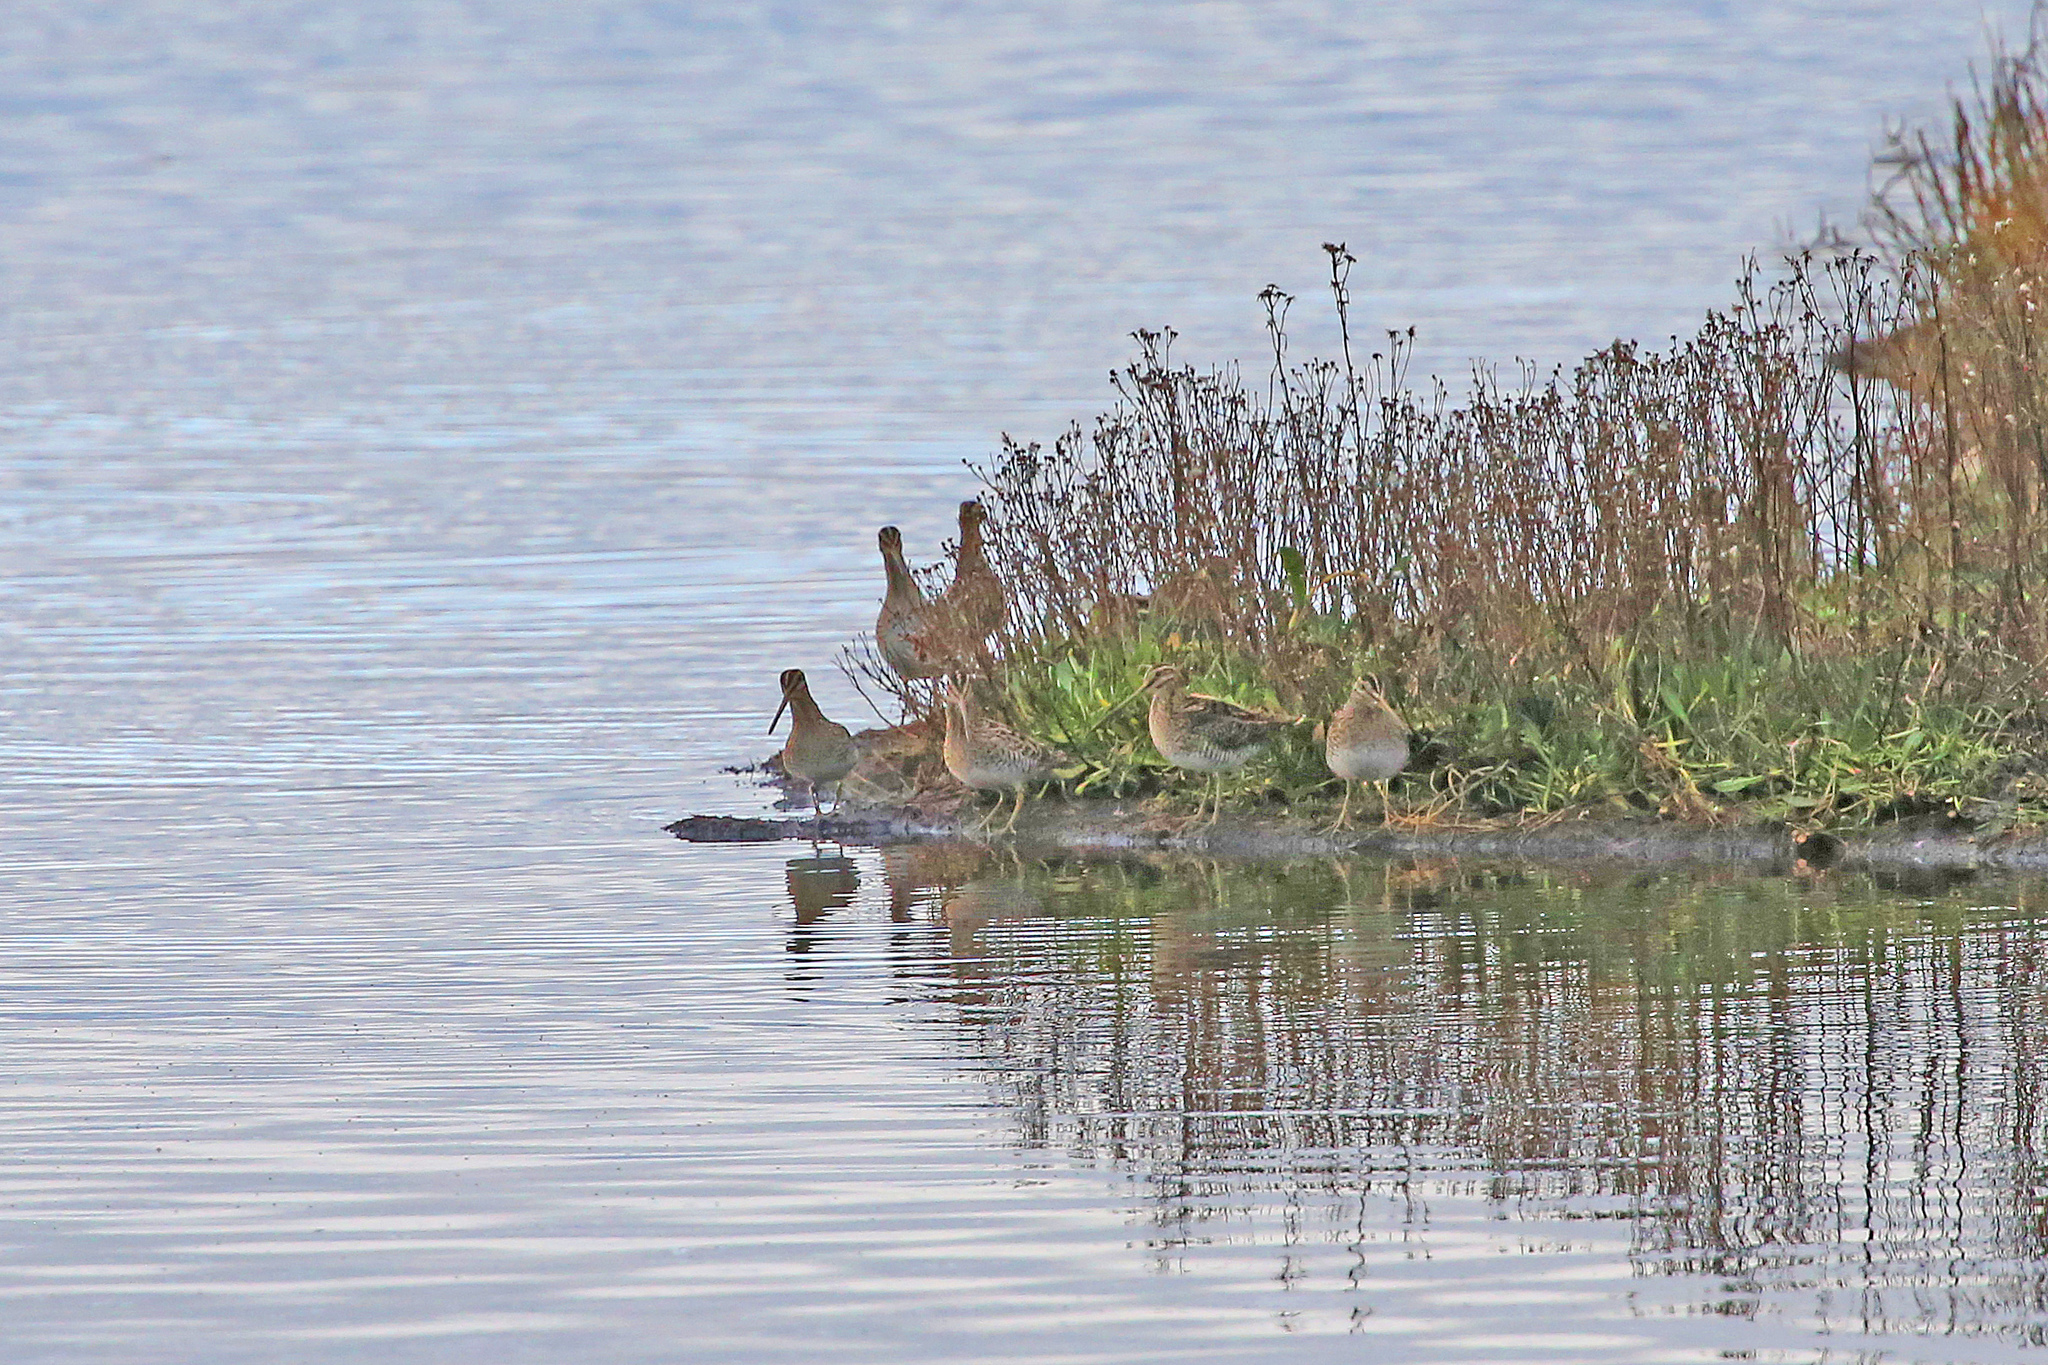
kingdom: Animalia
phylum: Chordata
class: Aves
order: Charadriiformes
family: Scolopacidae
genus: Gallinago
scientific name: Gallinago gallinago
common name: Common snipe
